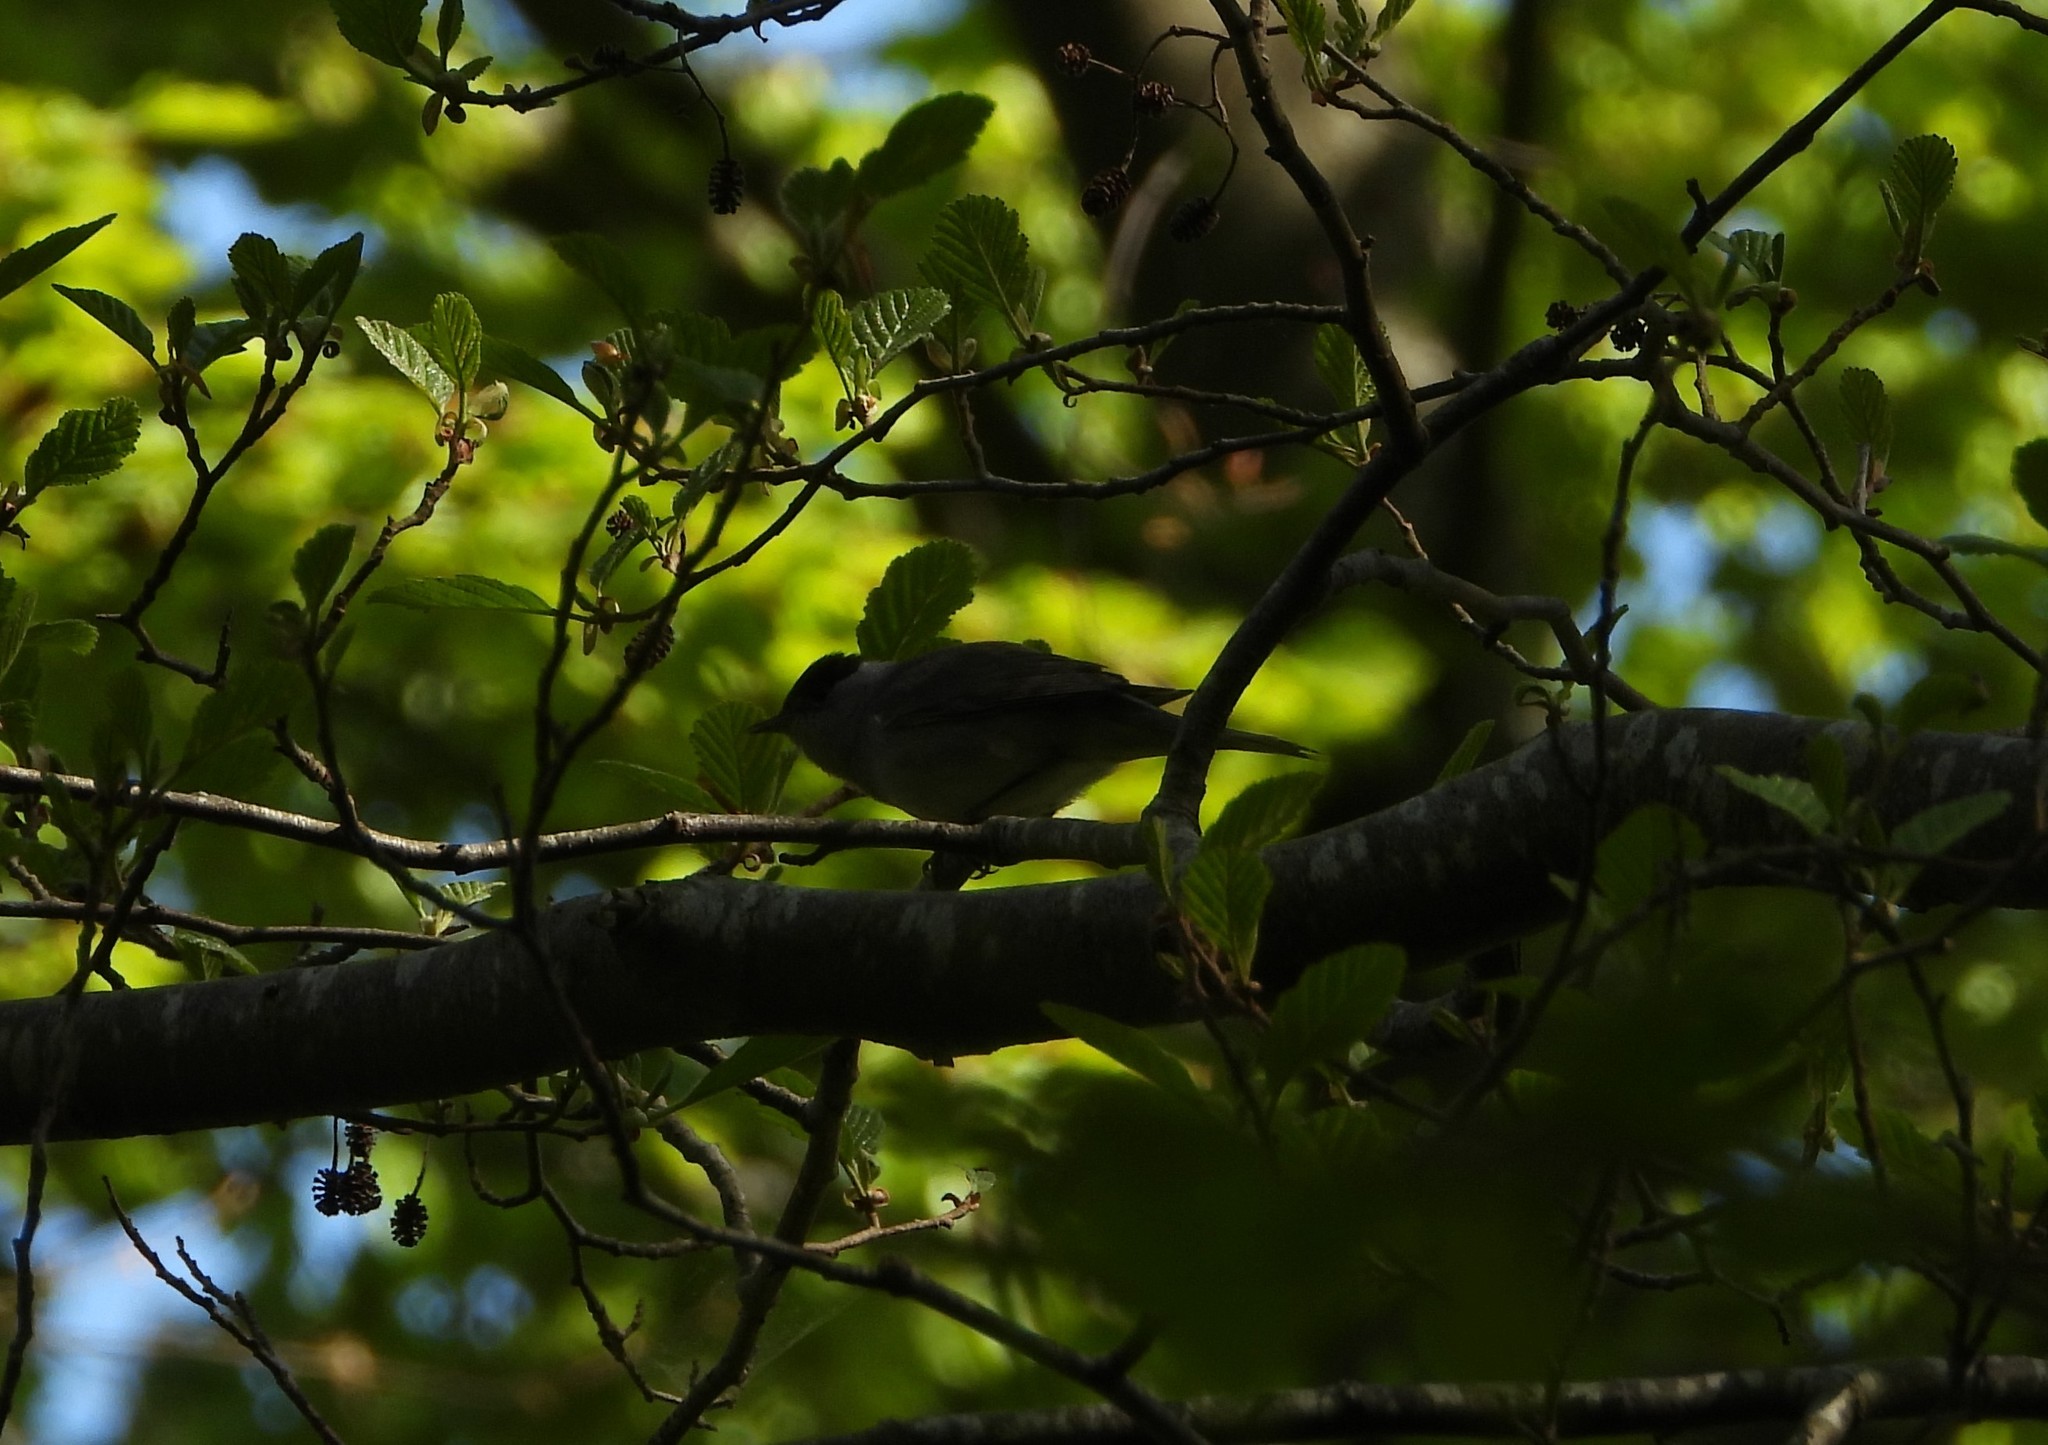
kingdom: Animalia
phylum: Chordata
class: Aves
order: Passeriformes
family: Sylviidae
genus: Sylvia
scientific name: Sylvia atricapilla
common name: Eurasian blackcap
